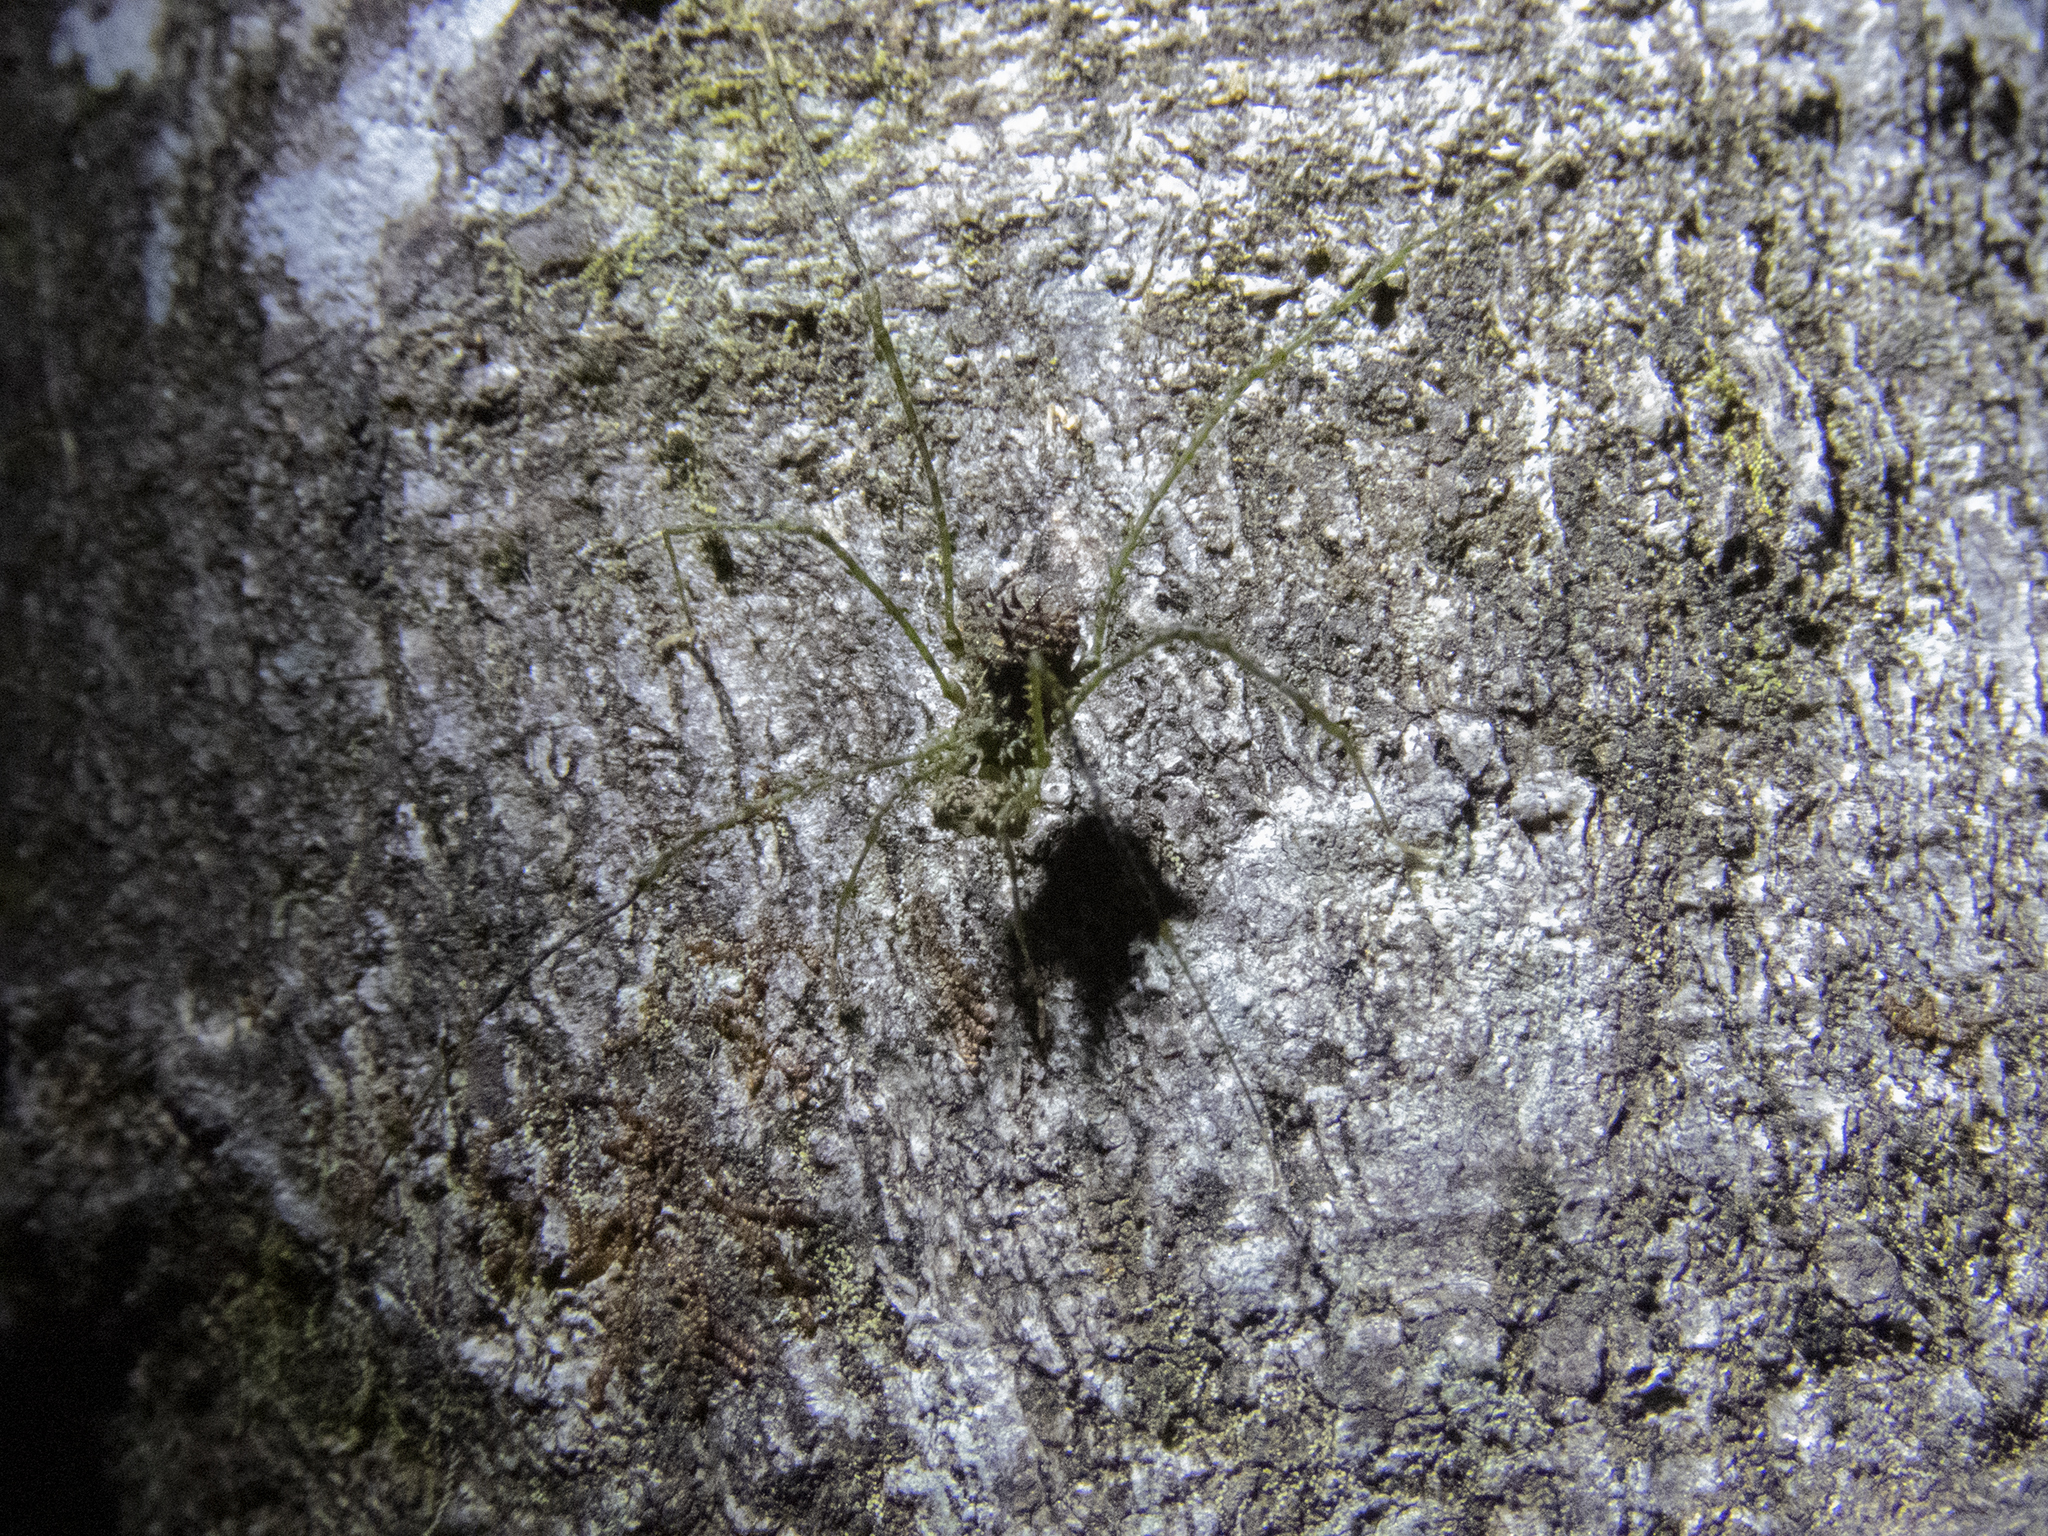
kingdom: Animalia
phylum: Arthropoda
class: Arachnida
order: Opiliones
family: Triaenonychidae
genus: Algidia
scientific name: Algidia viridata
